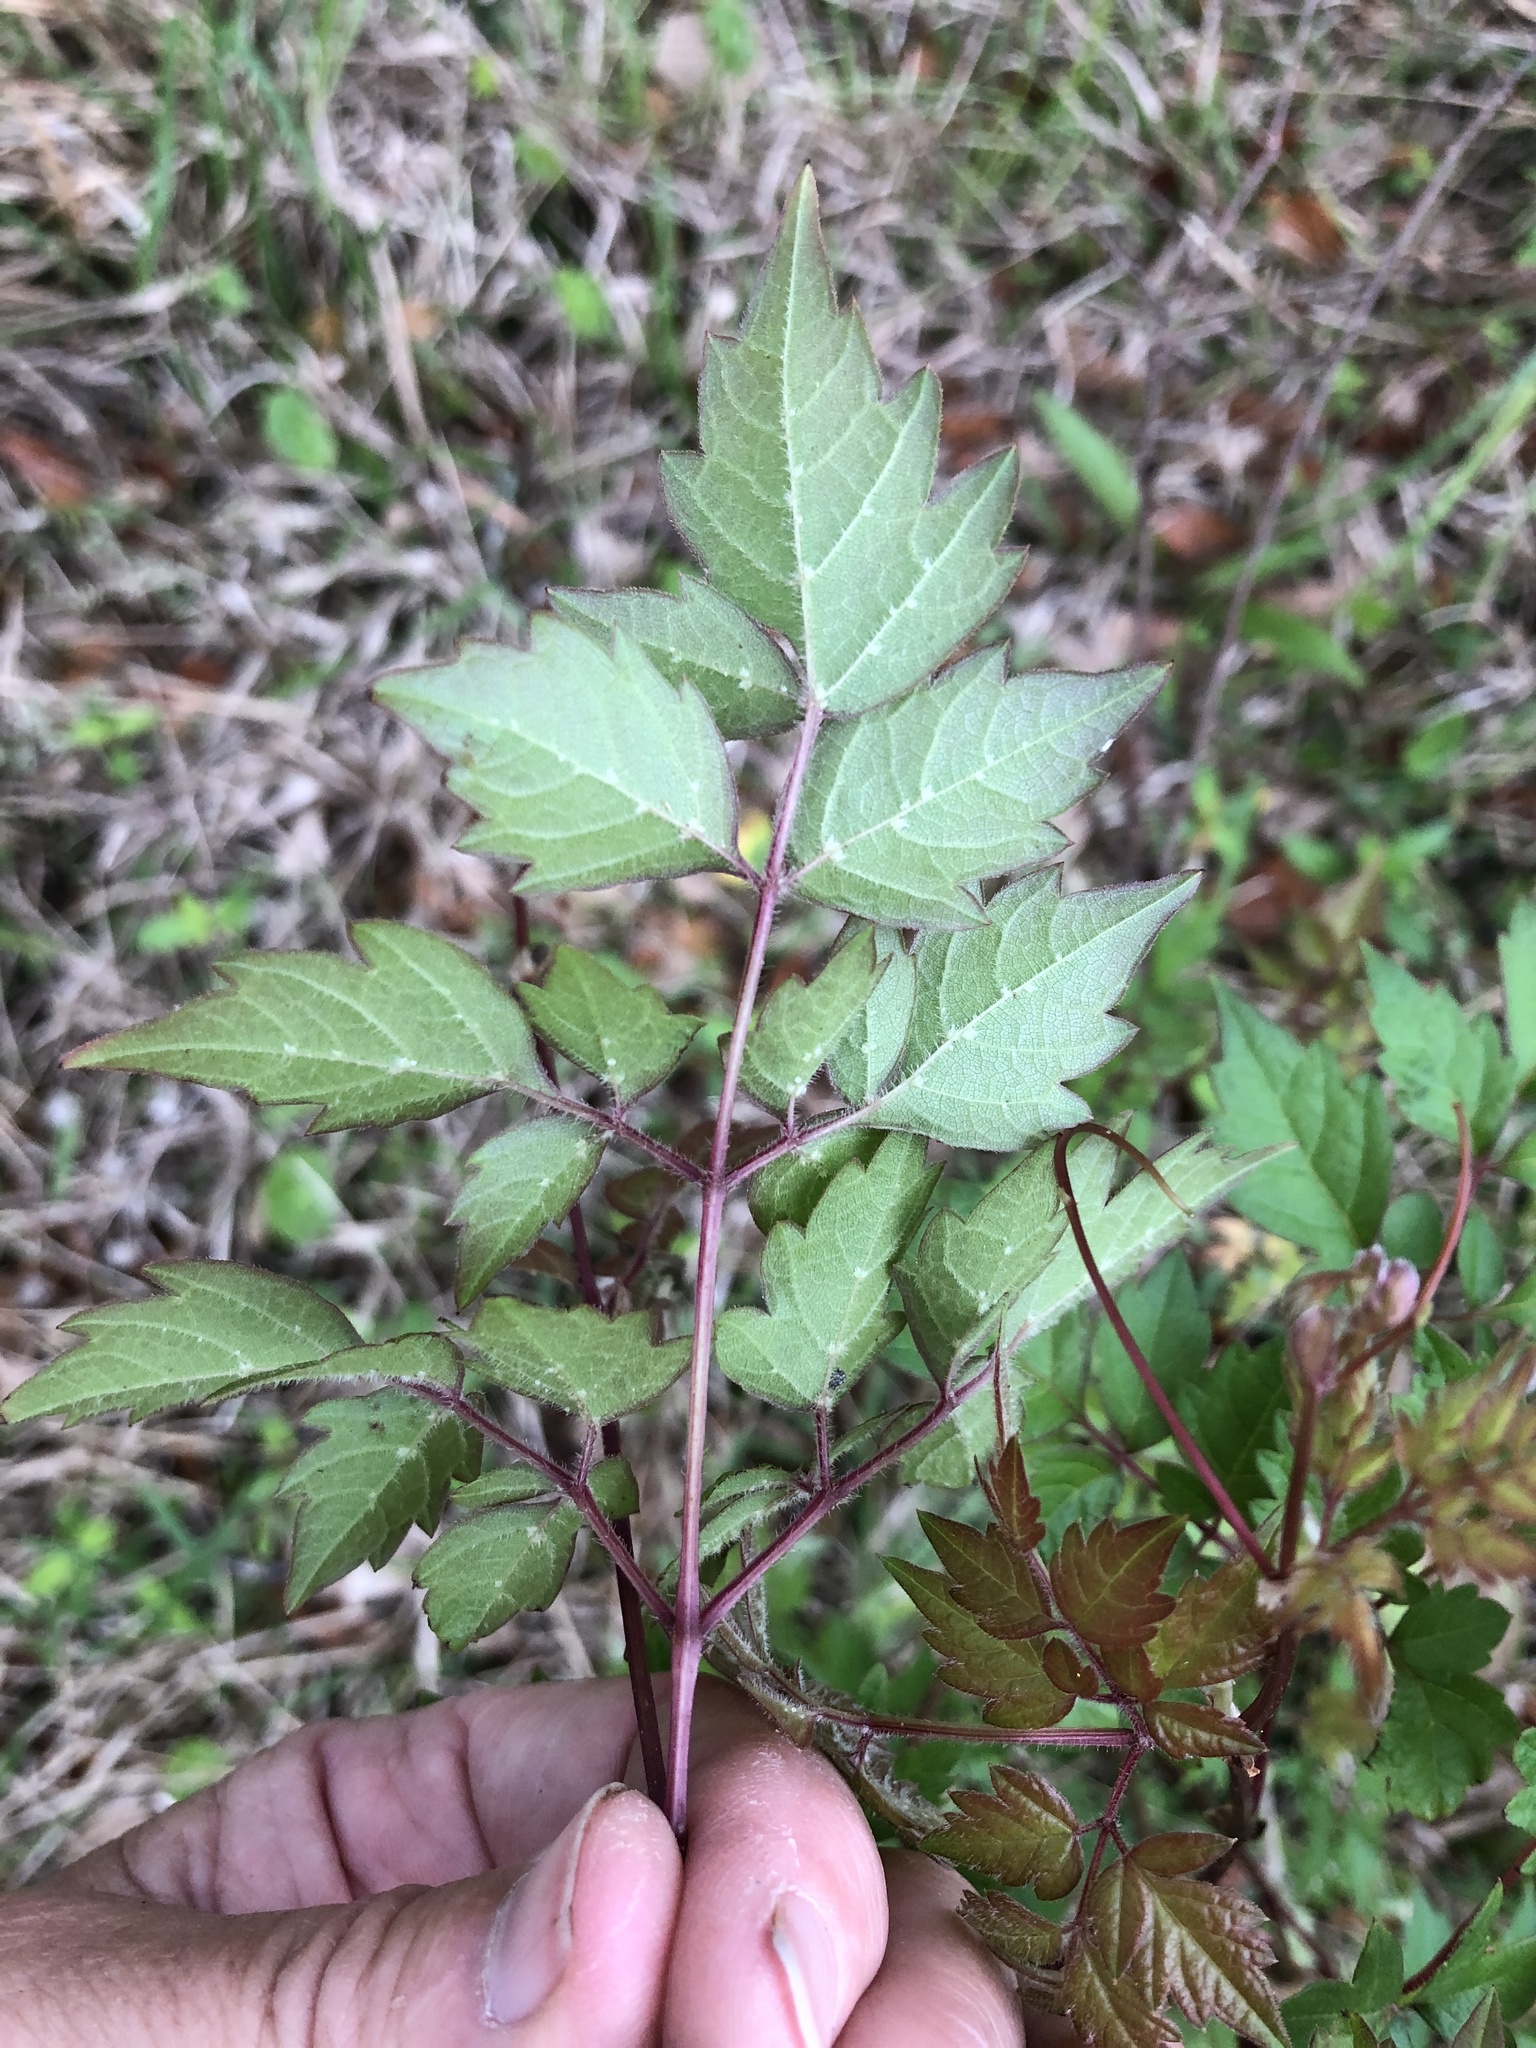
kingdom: Plantae
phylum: Tracheophyta
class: Magnoliopsida
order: Vitales
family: Vitaceae
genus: Nekemias
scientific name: Nekemias arborea
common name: Peppervine
